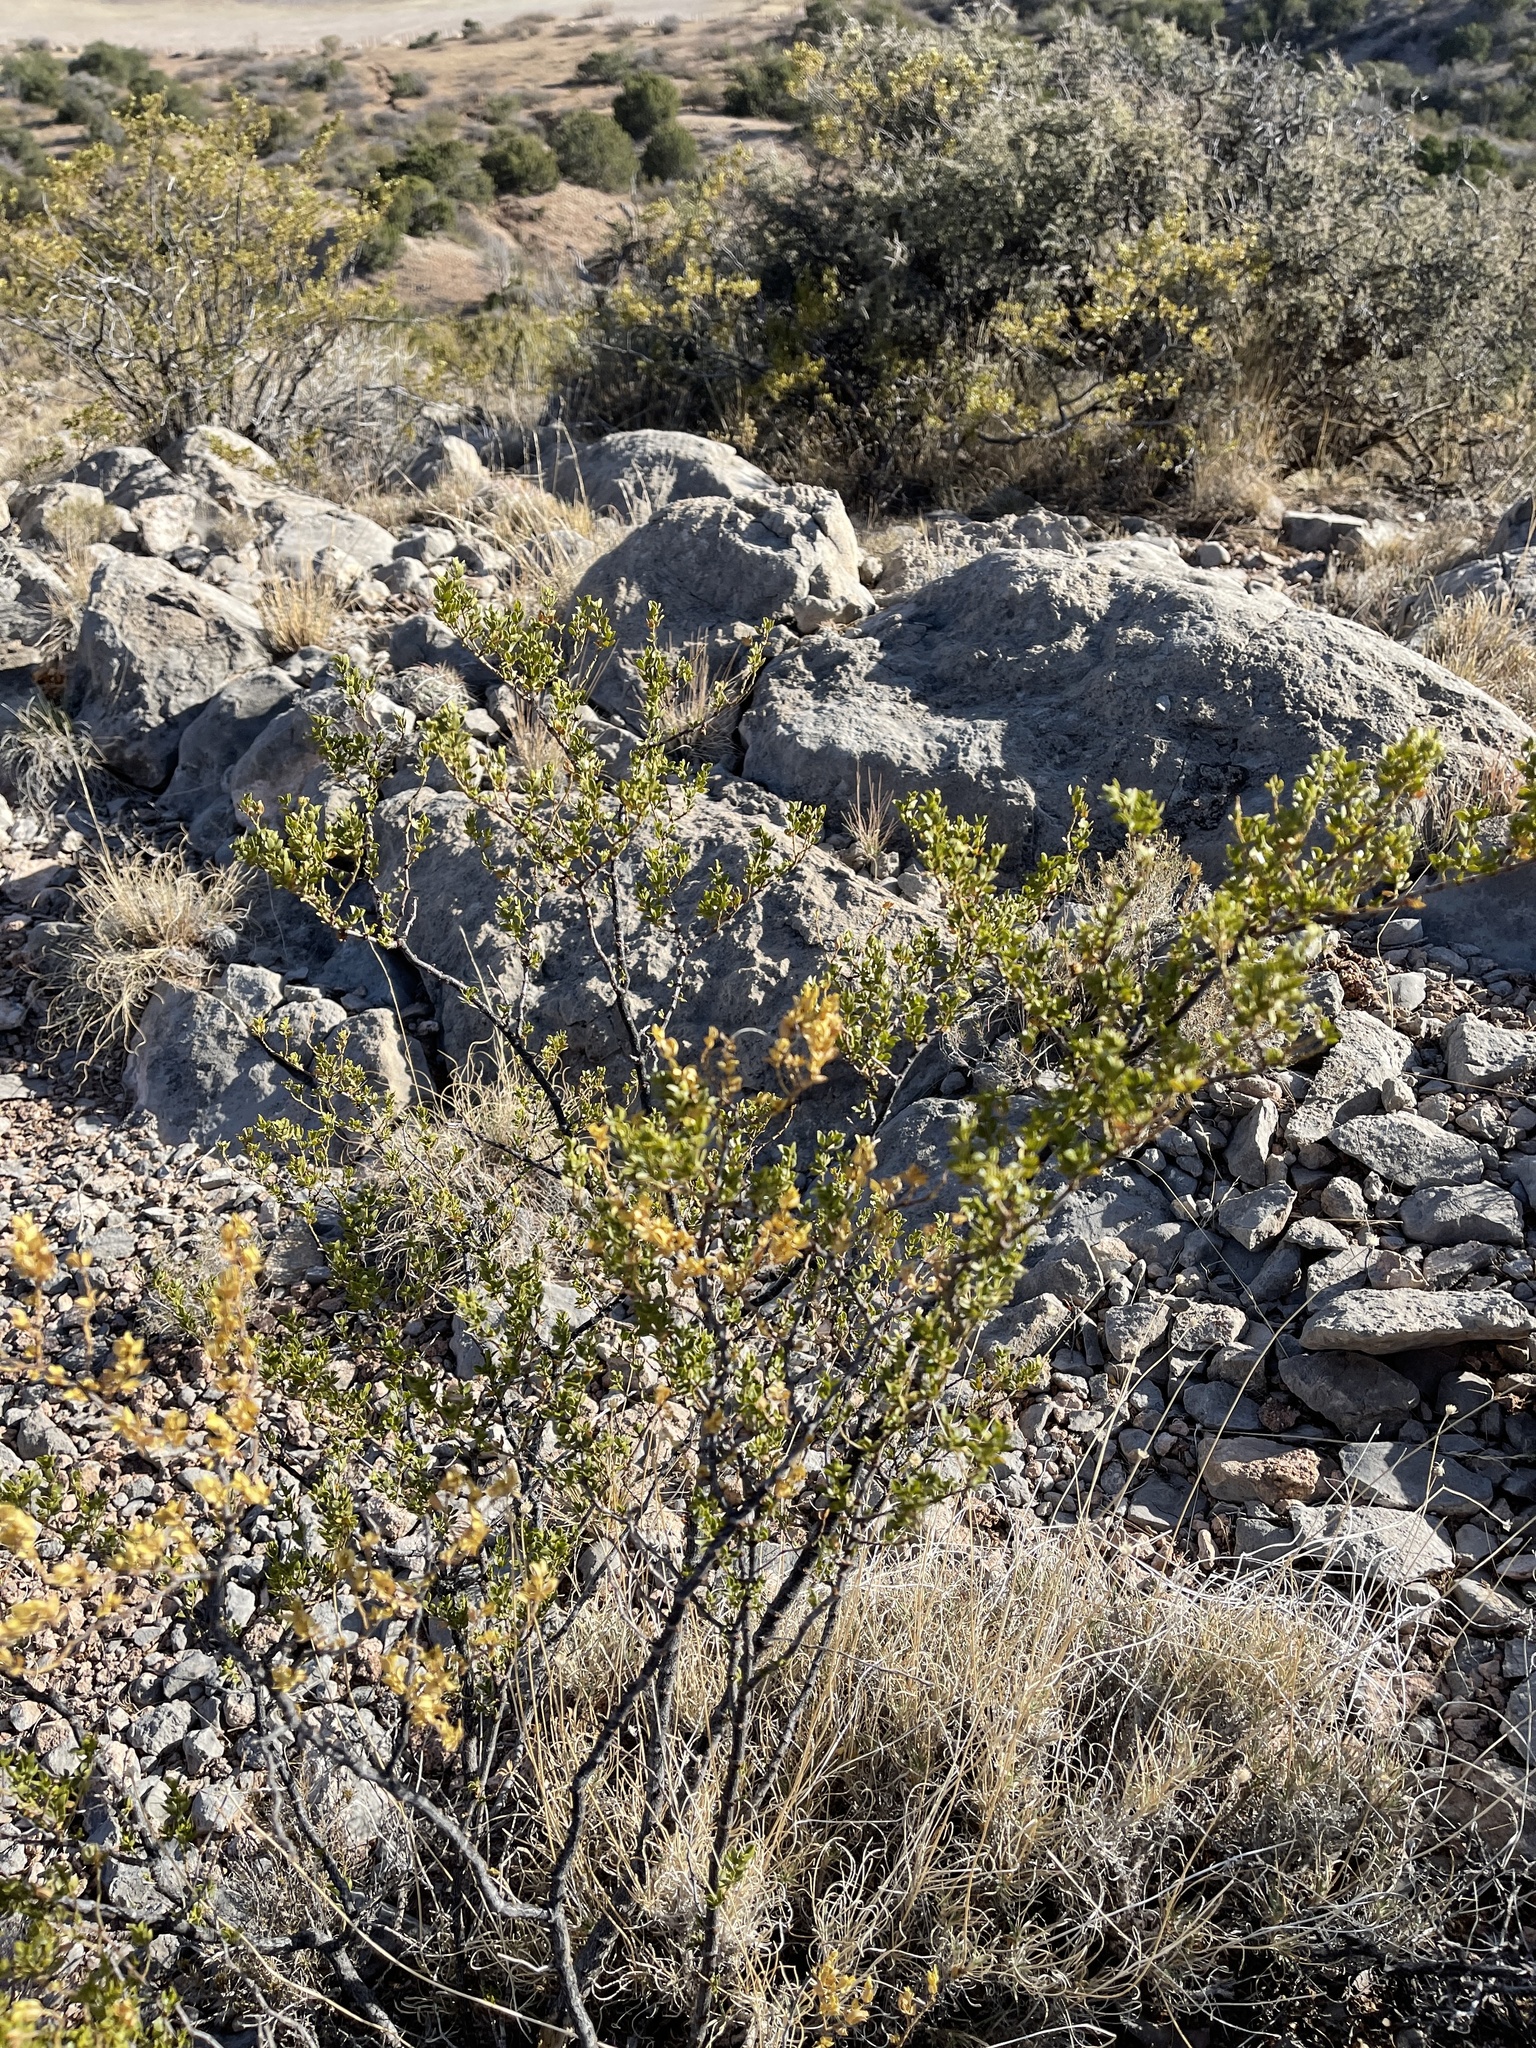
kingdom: Plantae
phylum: Tracheophyta
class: Magnoliopsida
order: Zygophyllales
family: Zygophyllaceae
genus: Larrea
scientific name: Larrea tridentata
